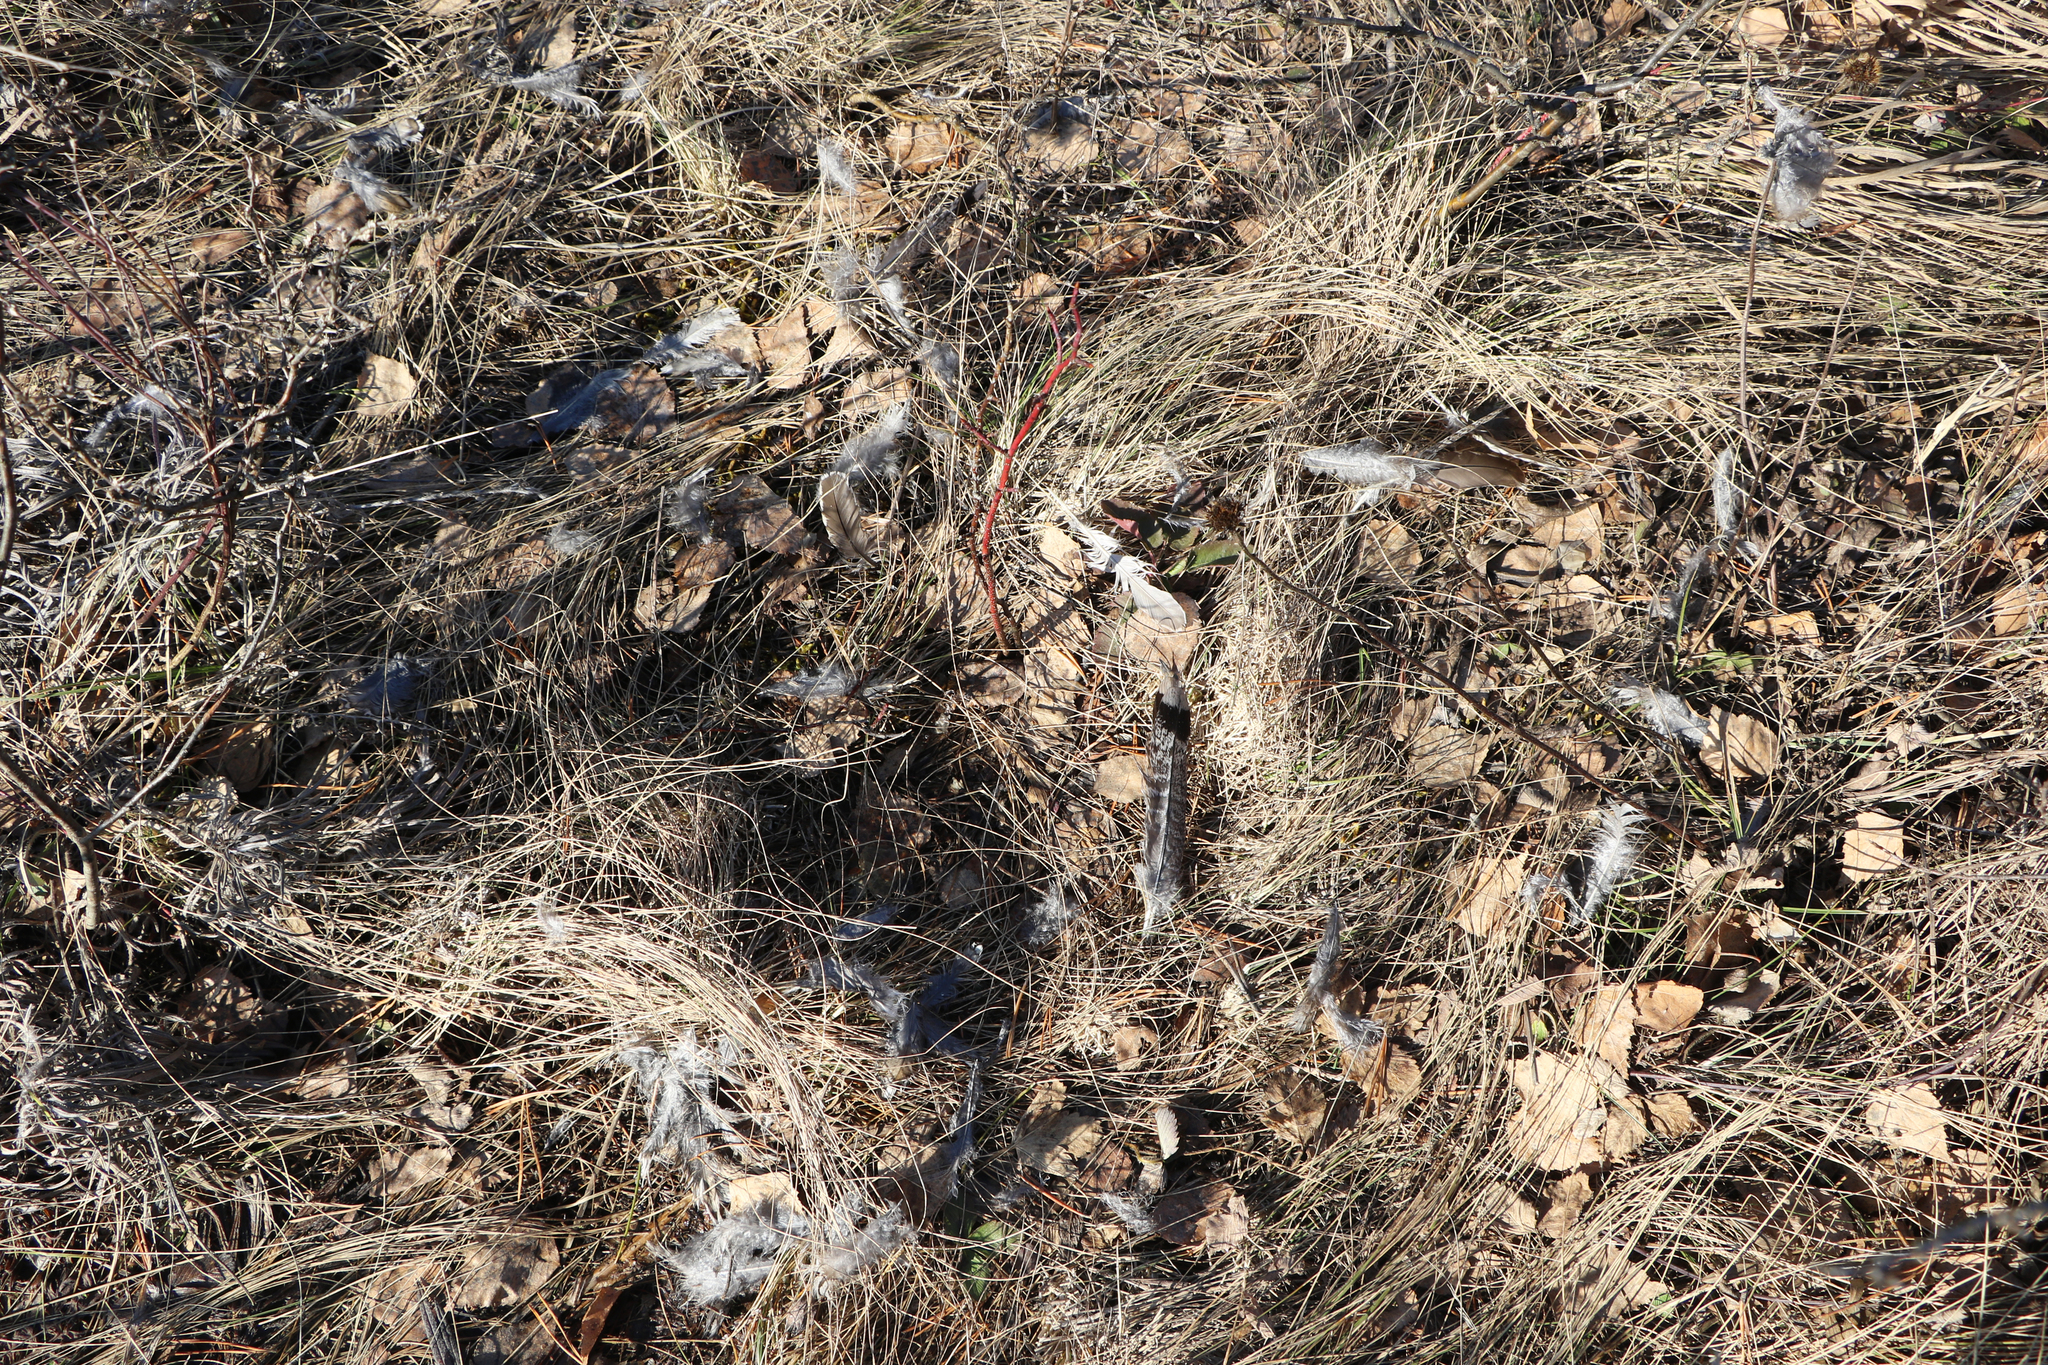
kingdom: Animalia
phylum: Chordata
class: Aves
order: Galliformes
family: Phasianidae
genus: Tetrastes
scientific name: Tetrastes bonasia
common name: Hazel grouse
